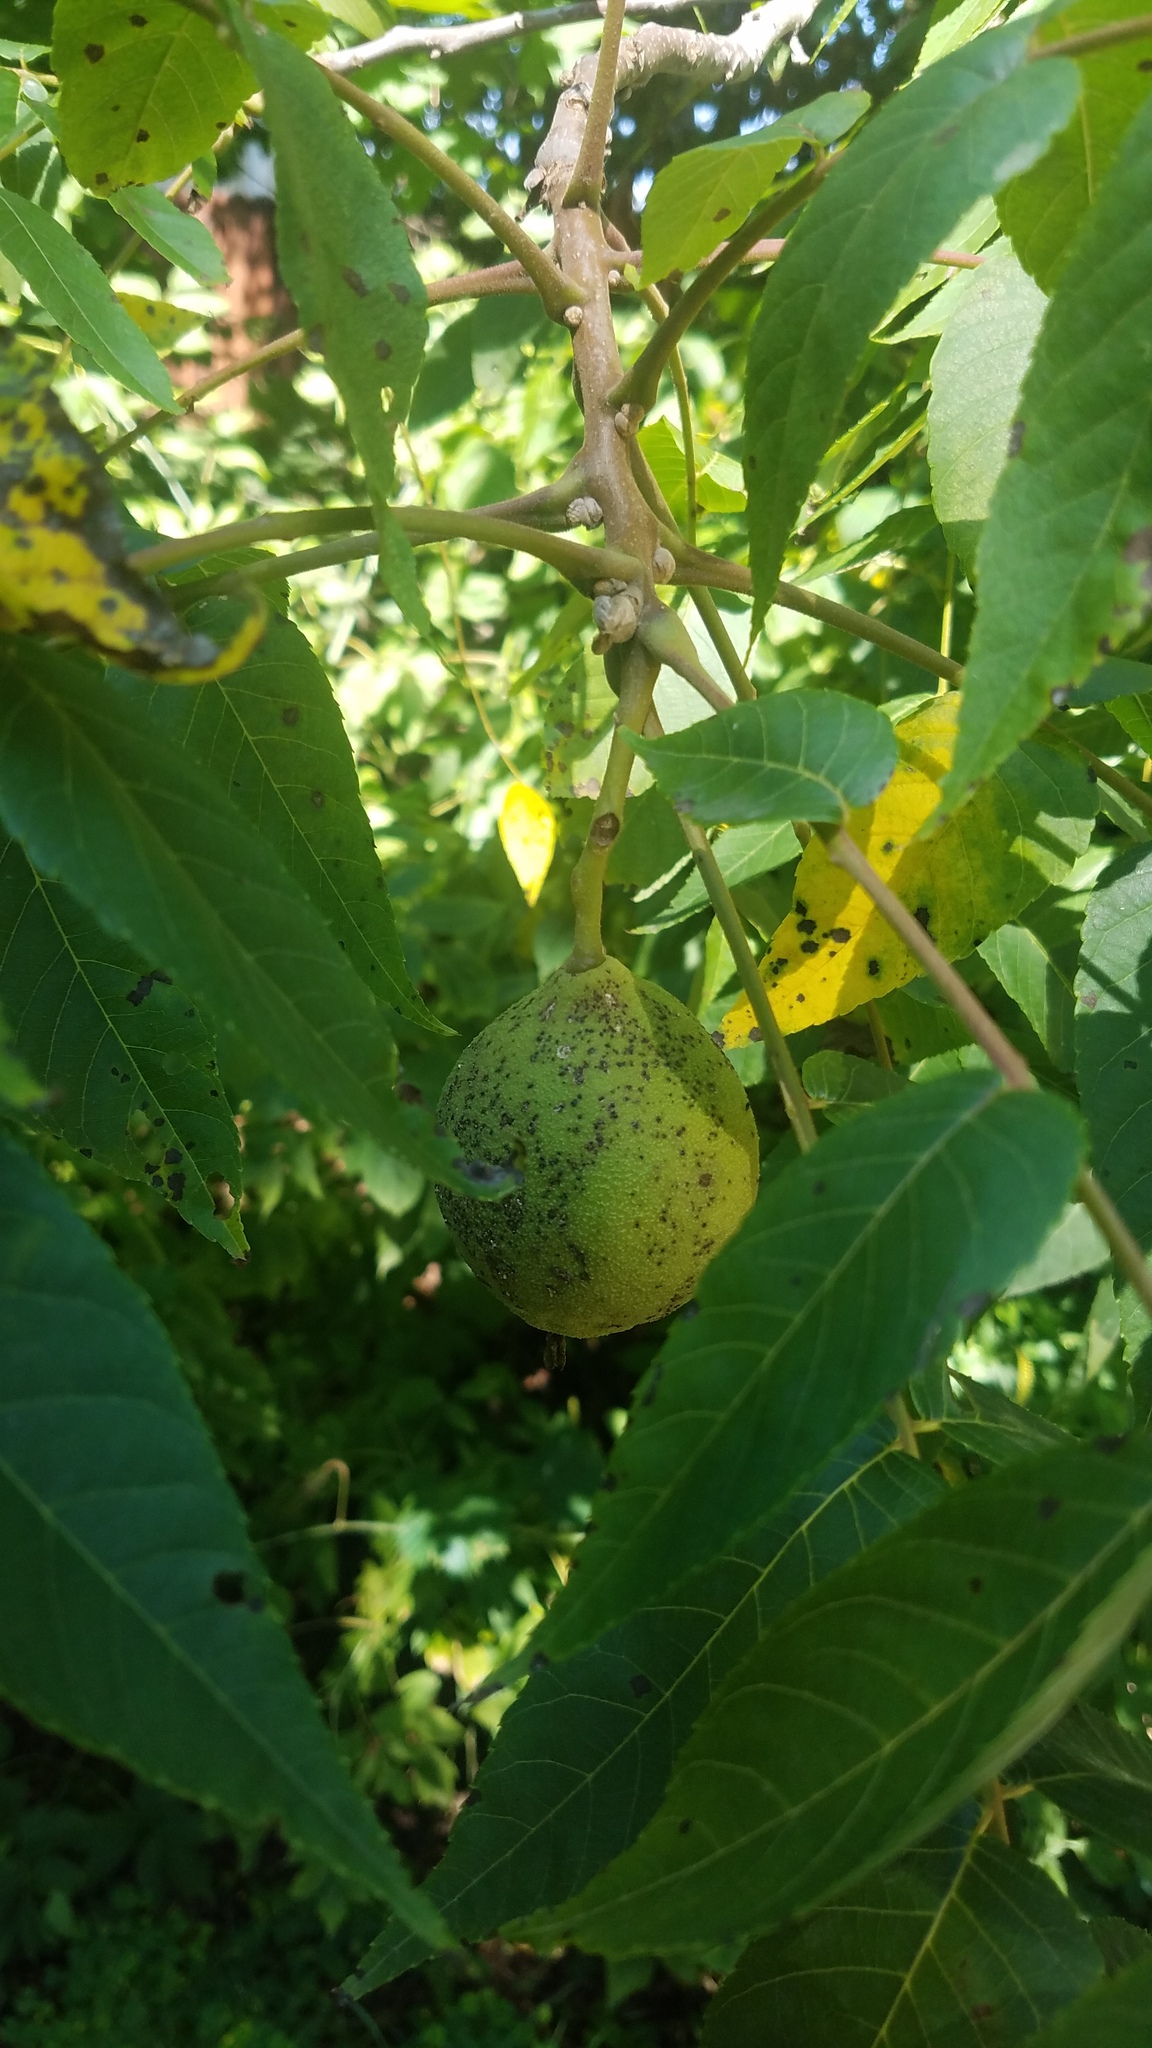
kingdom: Plantae
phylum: Tracheophyta
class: Magnoliopsida
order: Fagales
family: Juglandaceae
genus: Juglans
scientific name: Juglans nigra
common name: Black walnut
